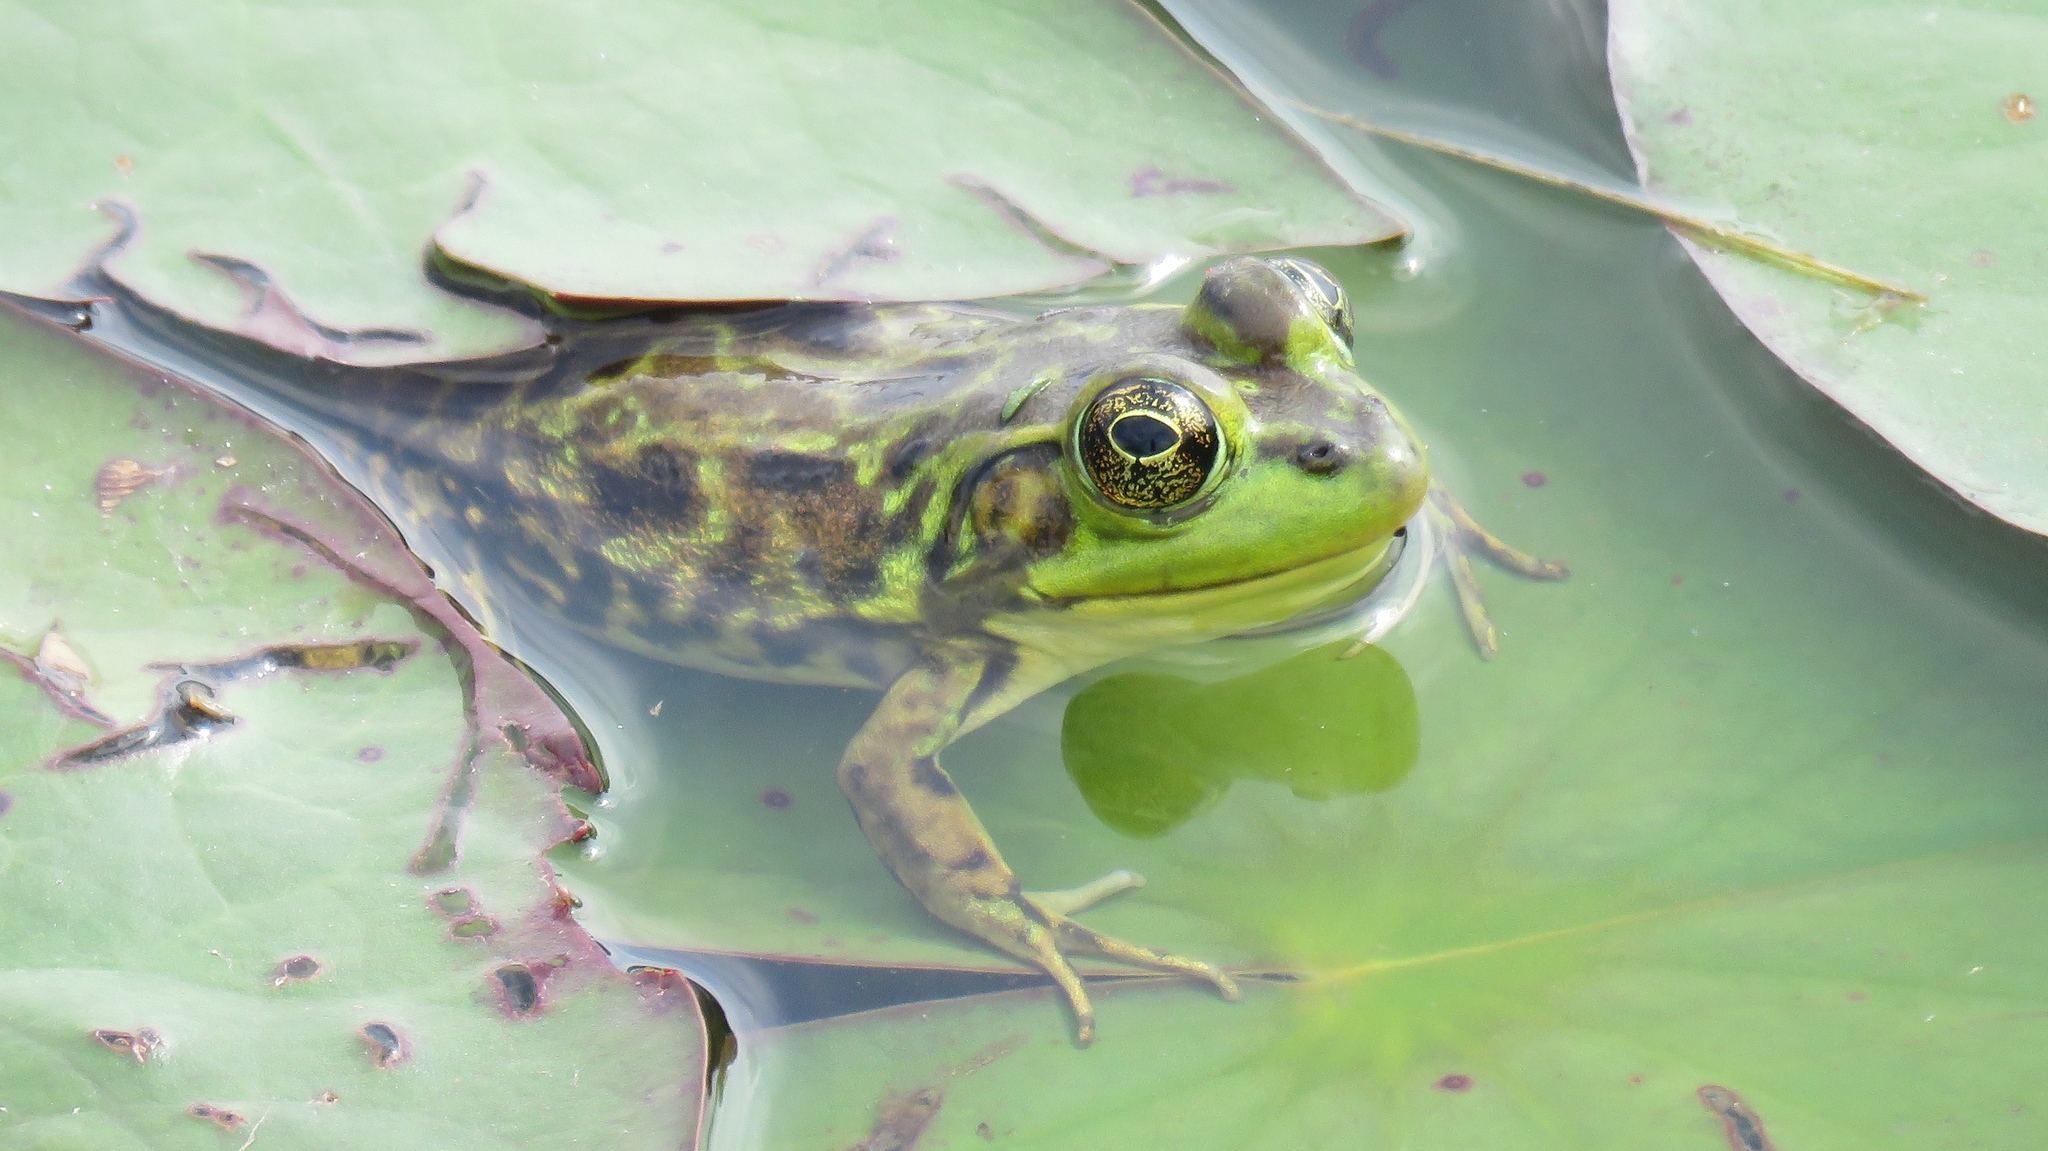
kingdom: Animalia
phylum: Chordata
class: Amphibia
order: Anura
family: Ranidae
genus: Lithobates
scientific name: Lithobates septentrionalis
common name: Mink frog
